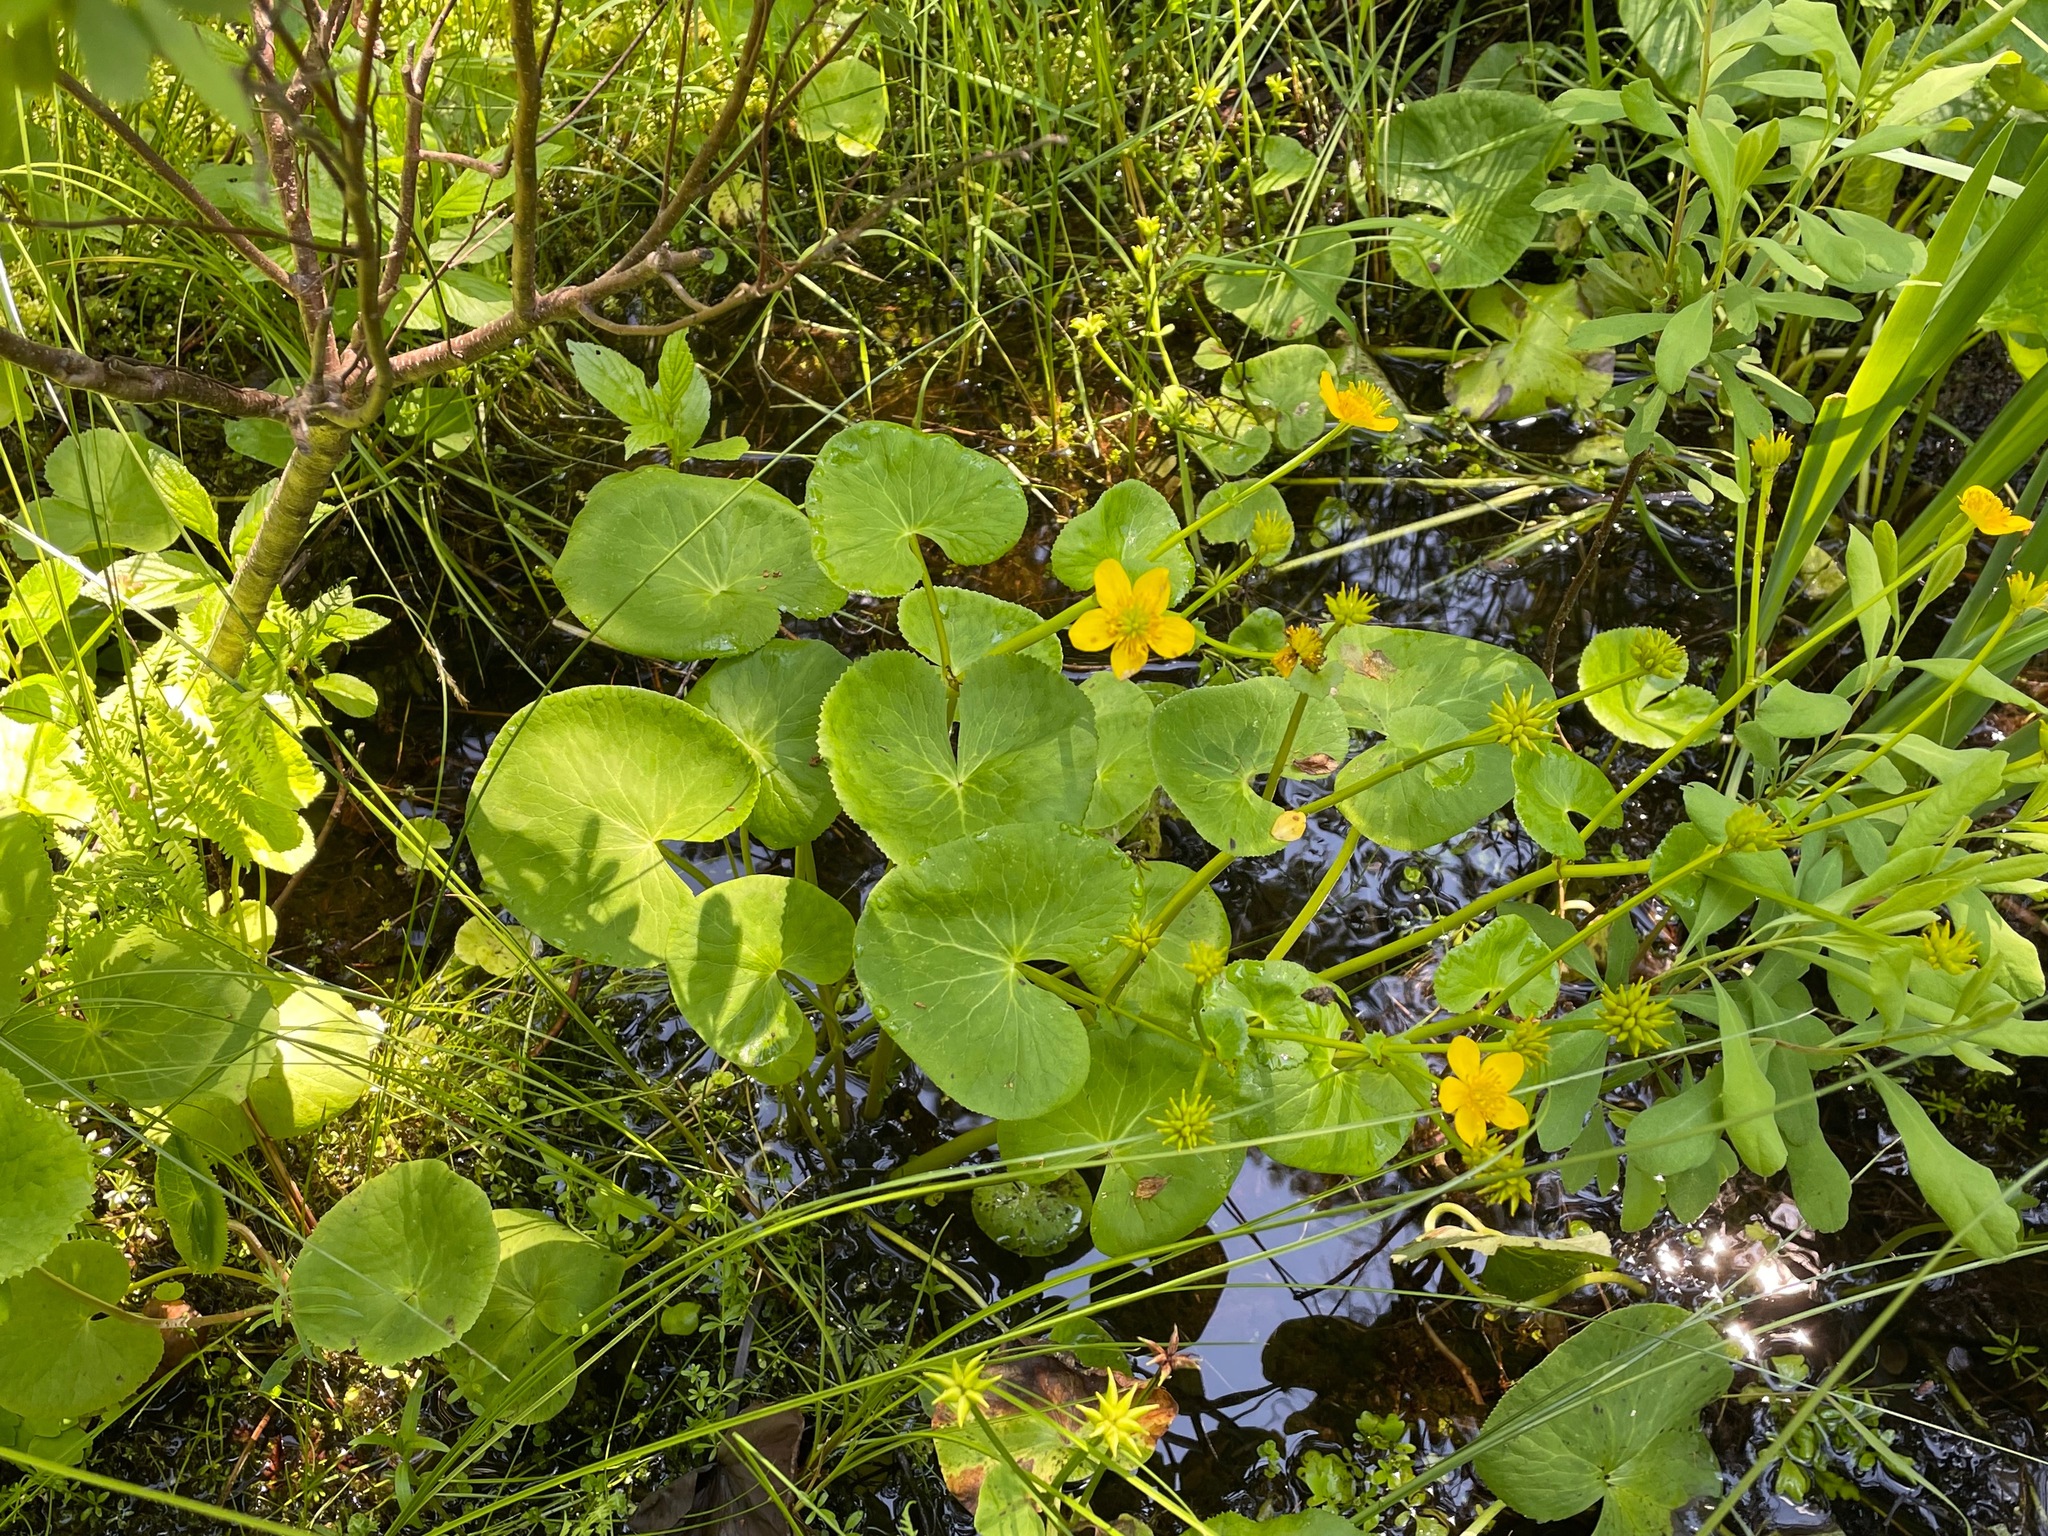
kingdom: Plantae
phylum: Tracheophyta
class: Magnoliopsida
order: Ranunculales
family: Ranunculaceae
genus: Caltha
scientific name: Caltha palustris
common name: Marsh marigold
